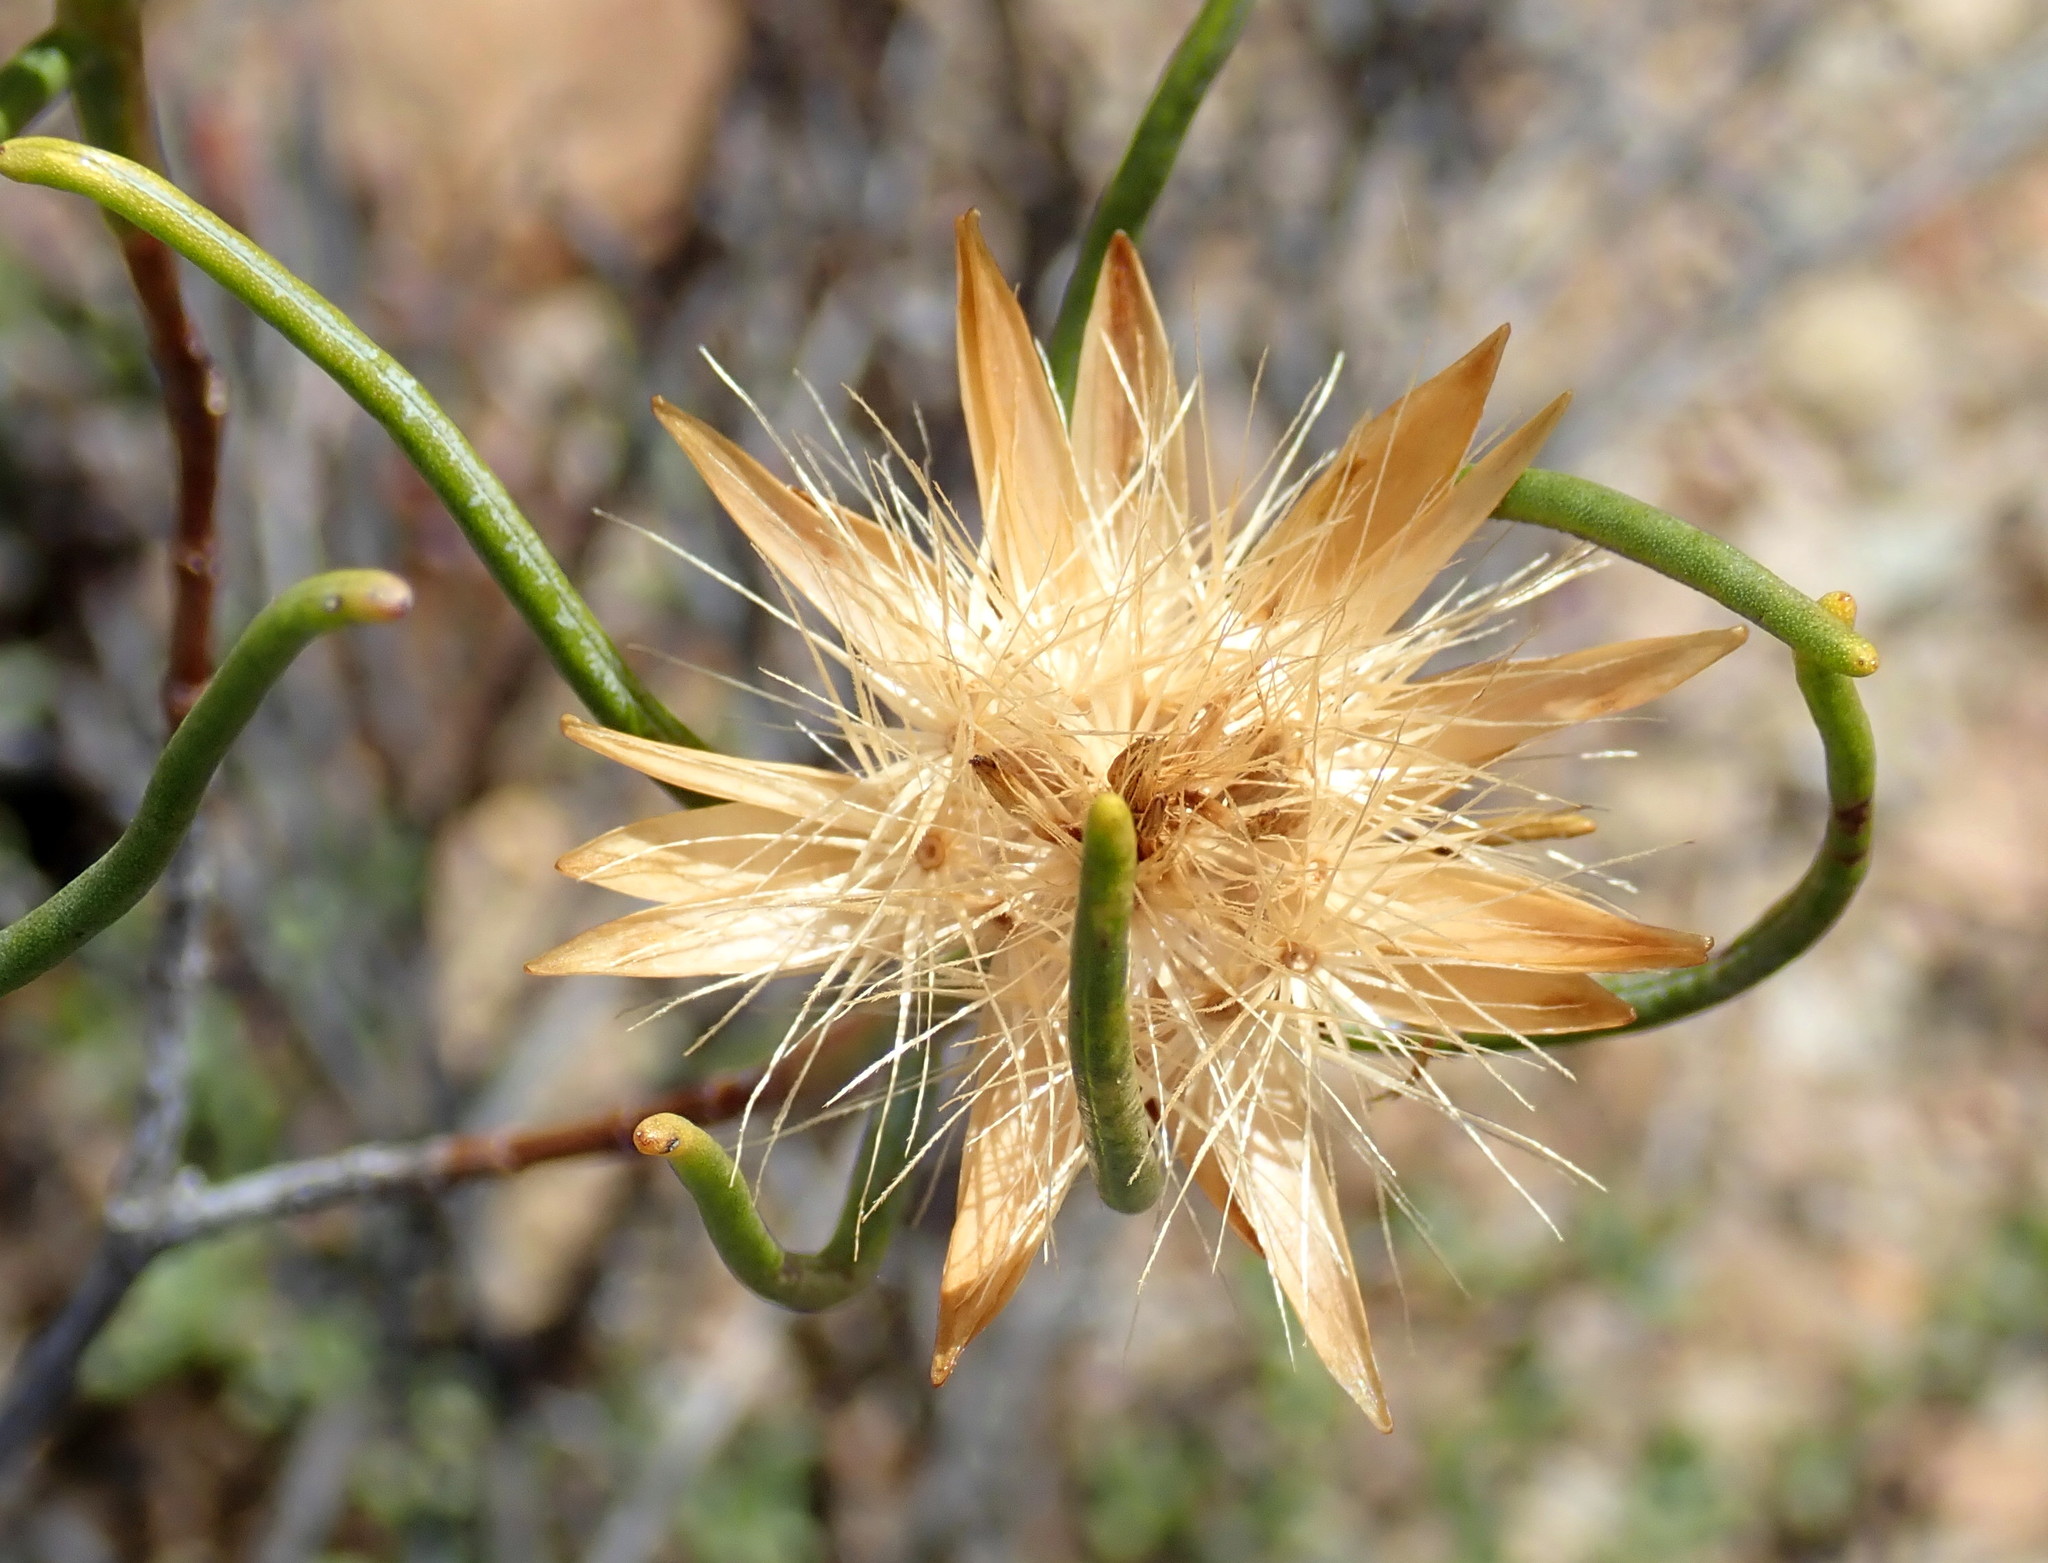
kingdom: Plantae
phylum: Tracheophyta
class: Magnoliopsida
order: Asterales
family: Asteraceae
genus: Pteronia
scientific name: Pteronia flexicaulis
